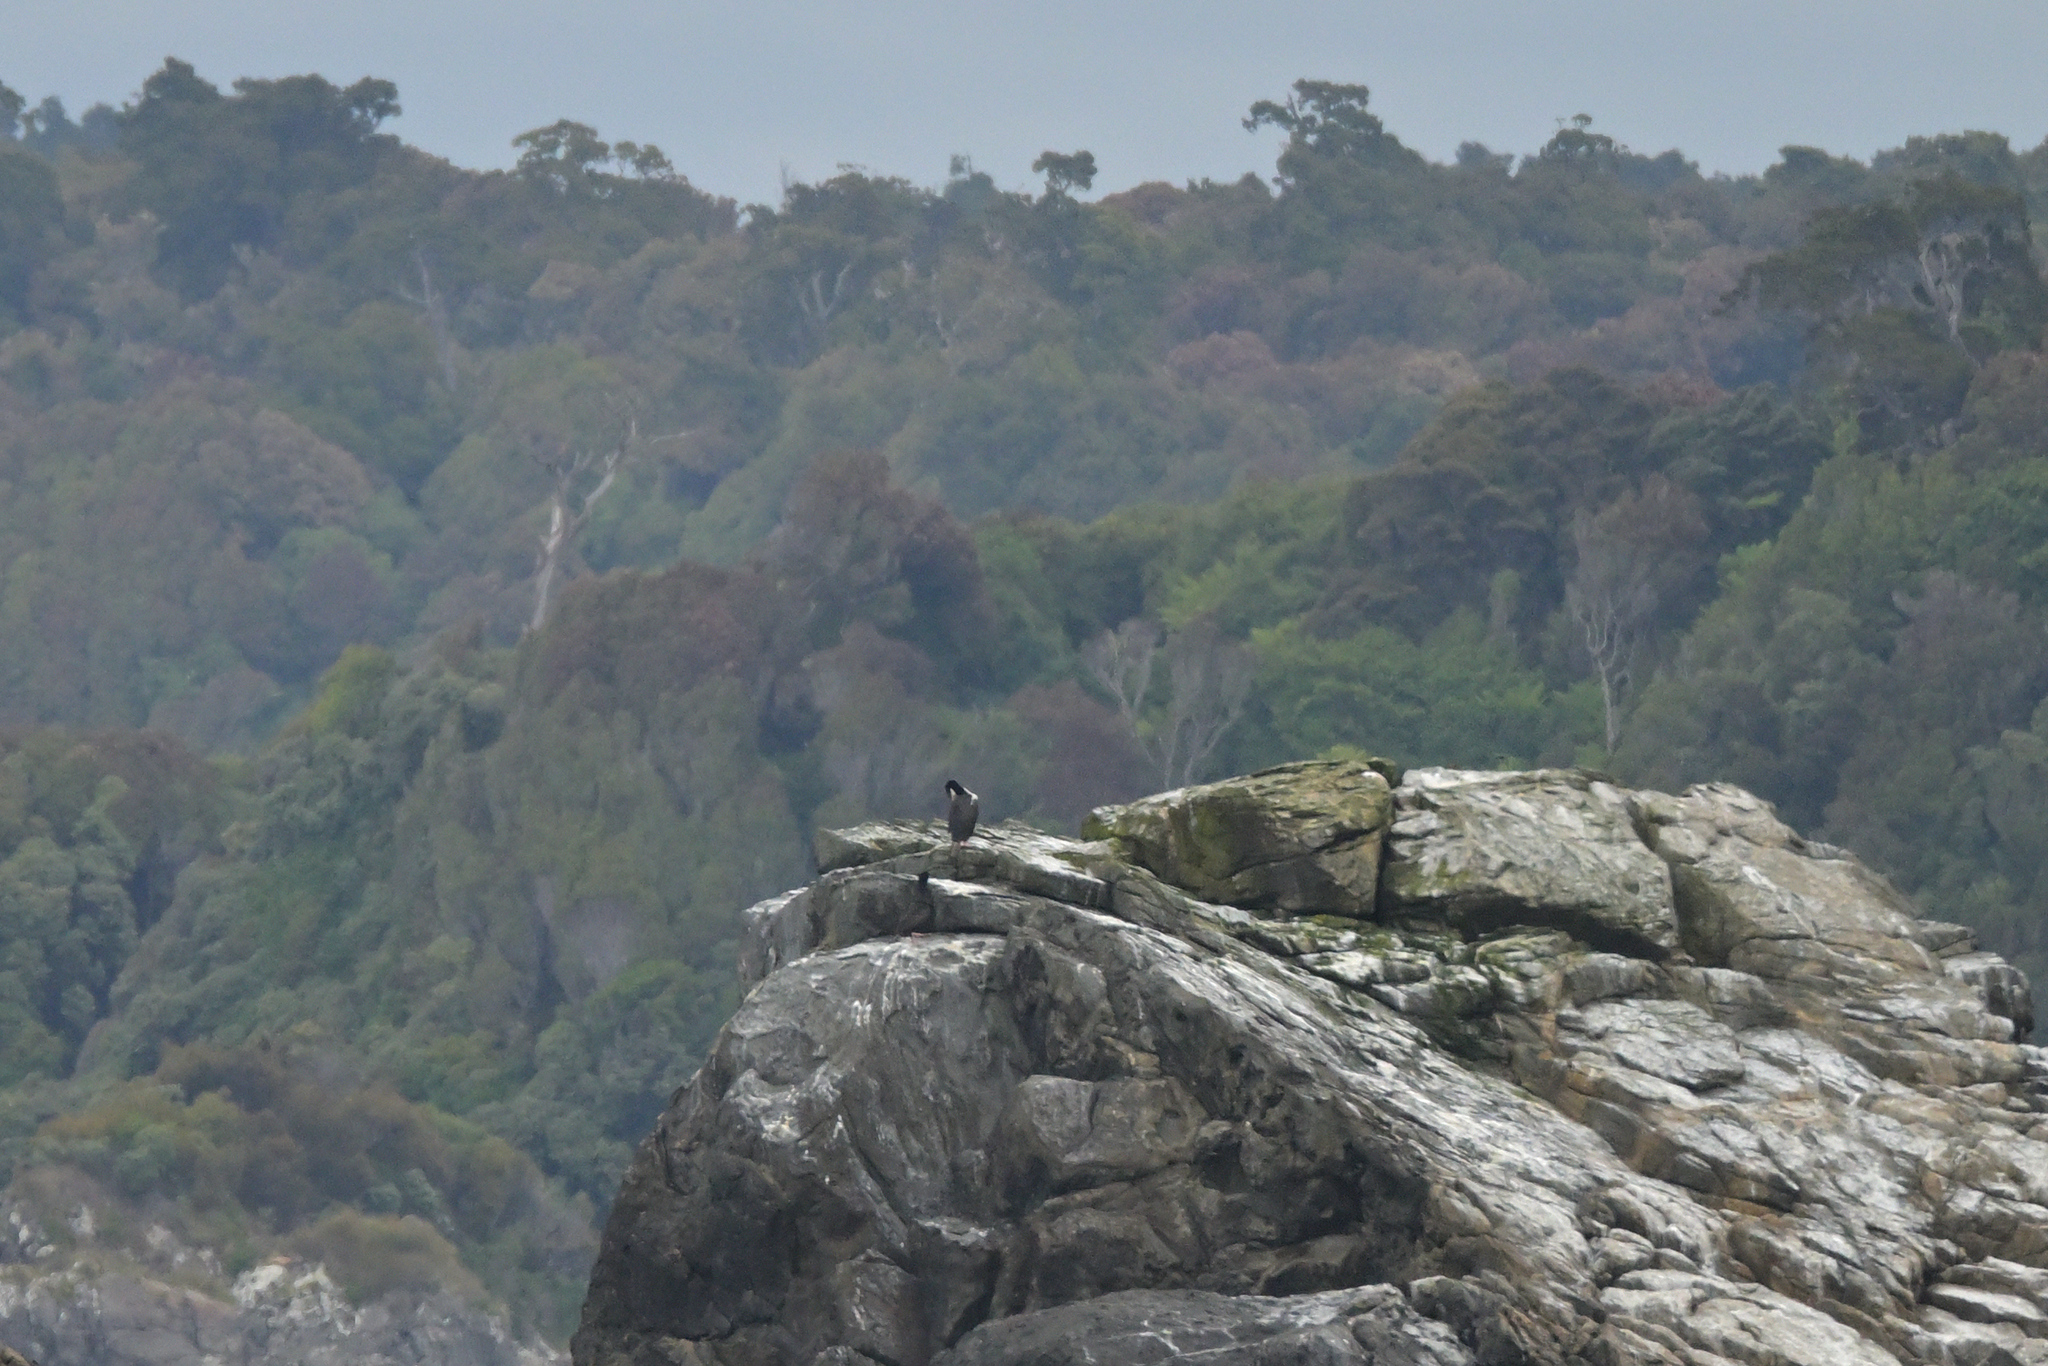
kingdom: Animalia
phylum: Chordata
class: Aves
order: Suliformes
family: Phalacrocoracidae
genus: Leucocarbo
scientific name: Leucocarbo chalconotus
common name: Stewart shag
